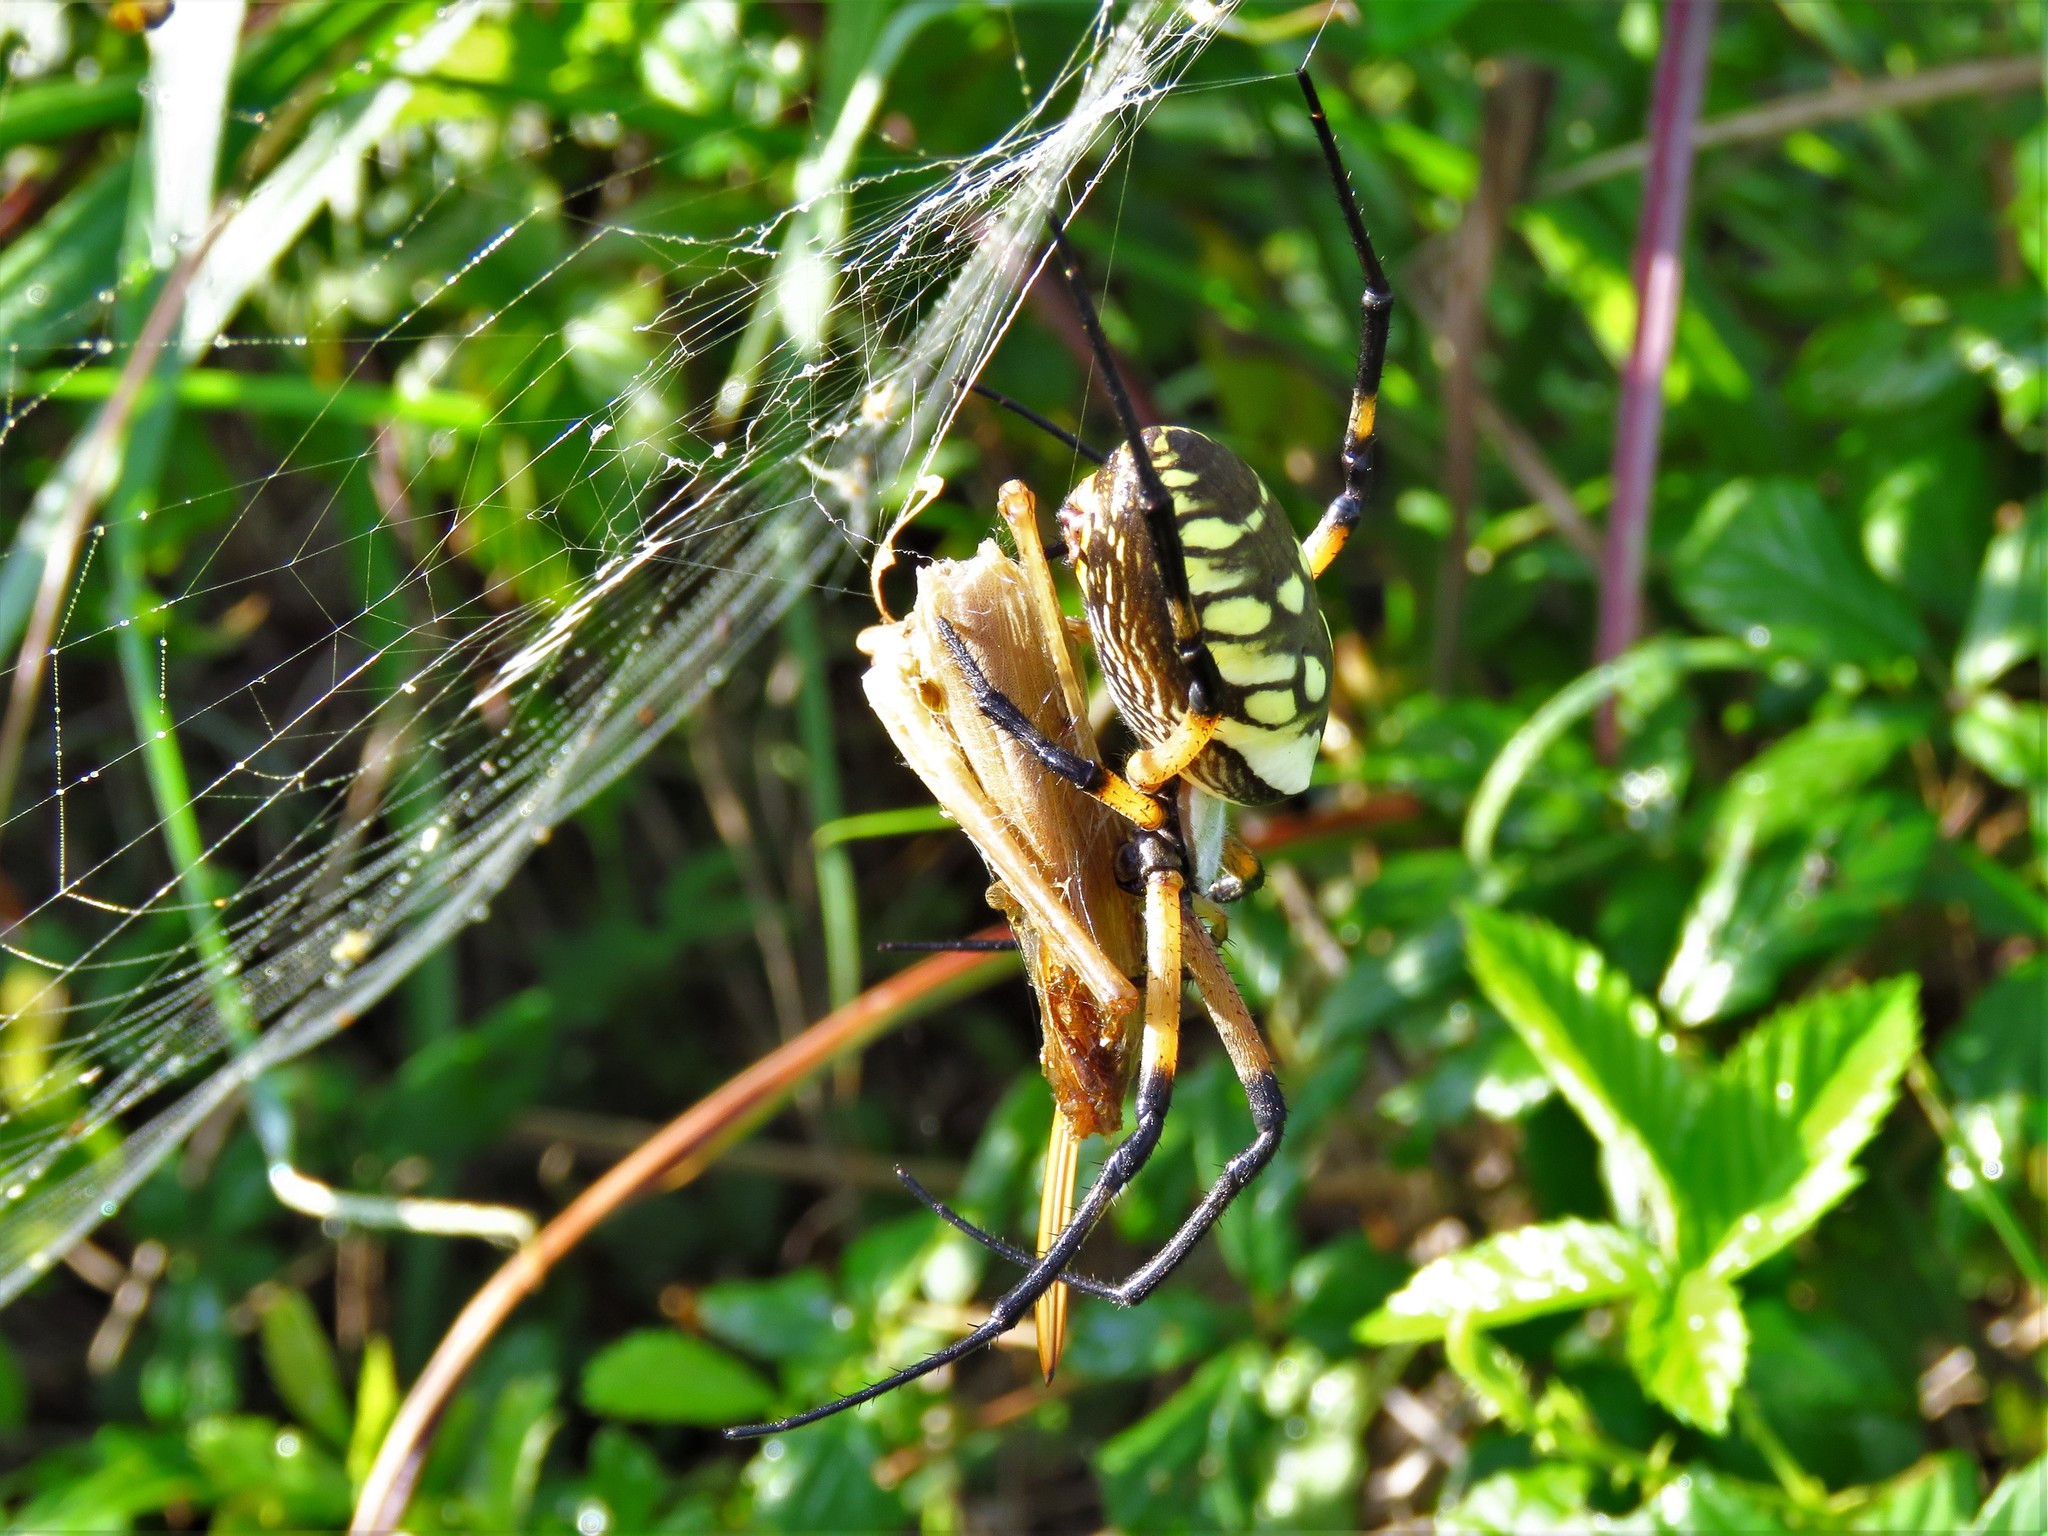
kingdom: Animalia
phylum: Arthropoda
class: Arachnida
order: Araneae
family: Araneidae
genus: Argiope
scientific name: Argiope aurantia
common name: Orb weavers
